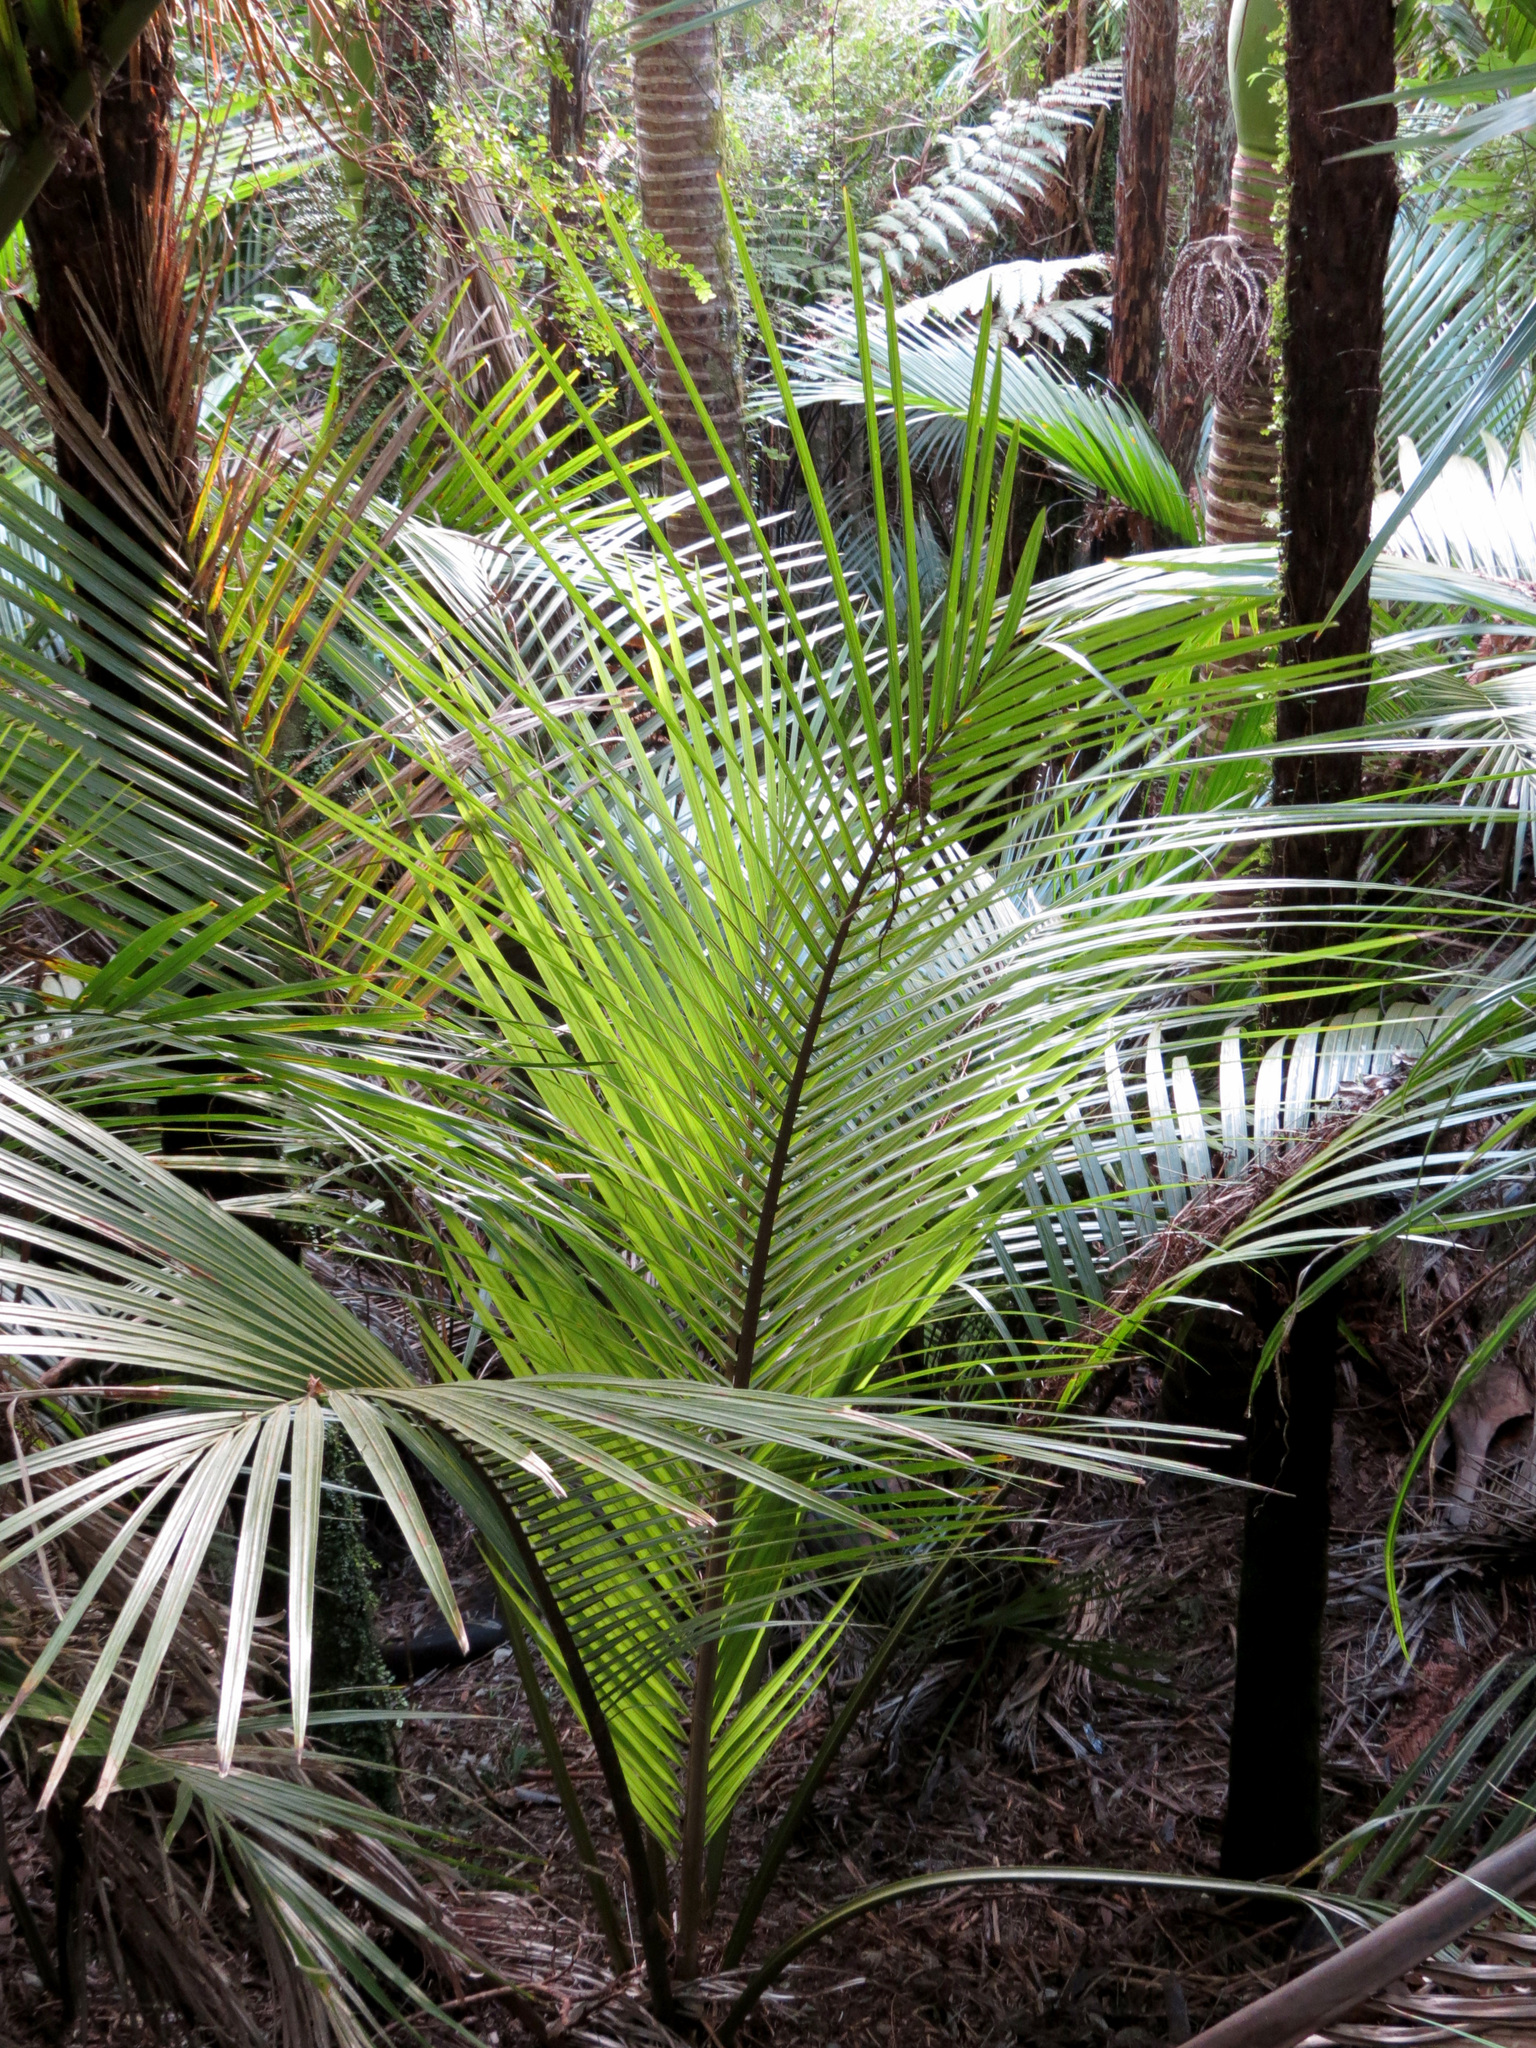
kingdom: Plantae
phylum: Tracheophyta
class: Liliopsida
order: Arecales
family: Arecaceae
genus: Rhopalostylis
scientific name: Rhopalostylis sapida
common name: Feather-duster palm
